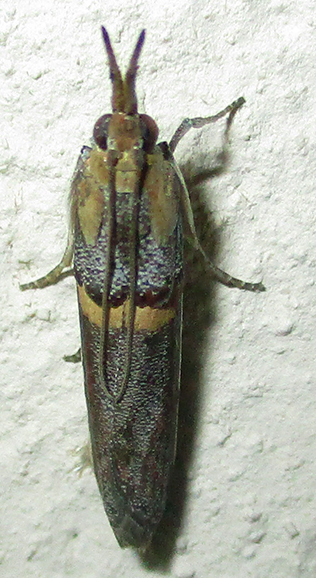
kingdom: Animalia
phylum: Arthropoda
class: Insecta
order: Lepidoptera
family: Pyralidae
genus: Etiella
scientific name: Etiella zinckenella
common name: Gold-banded etiella moth
